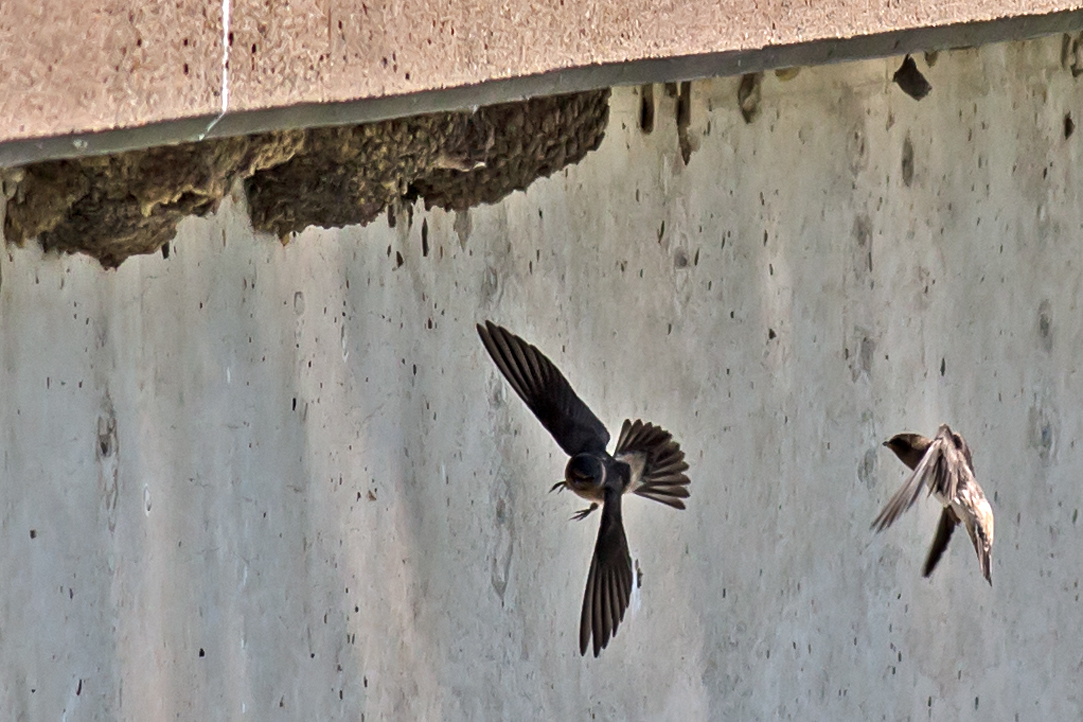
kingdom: Animalia
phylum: Chordata
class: Aves
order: Passeriformes
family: Hirundinidae
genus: Petrochelidon
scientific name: Petrochelidon pyrrhonota
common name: American cliff swallow
